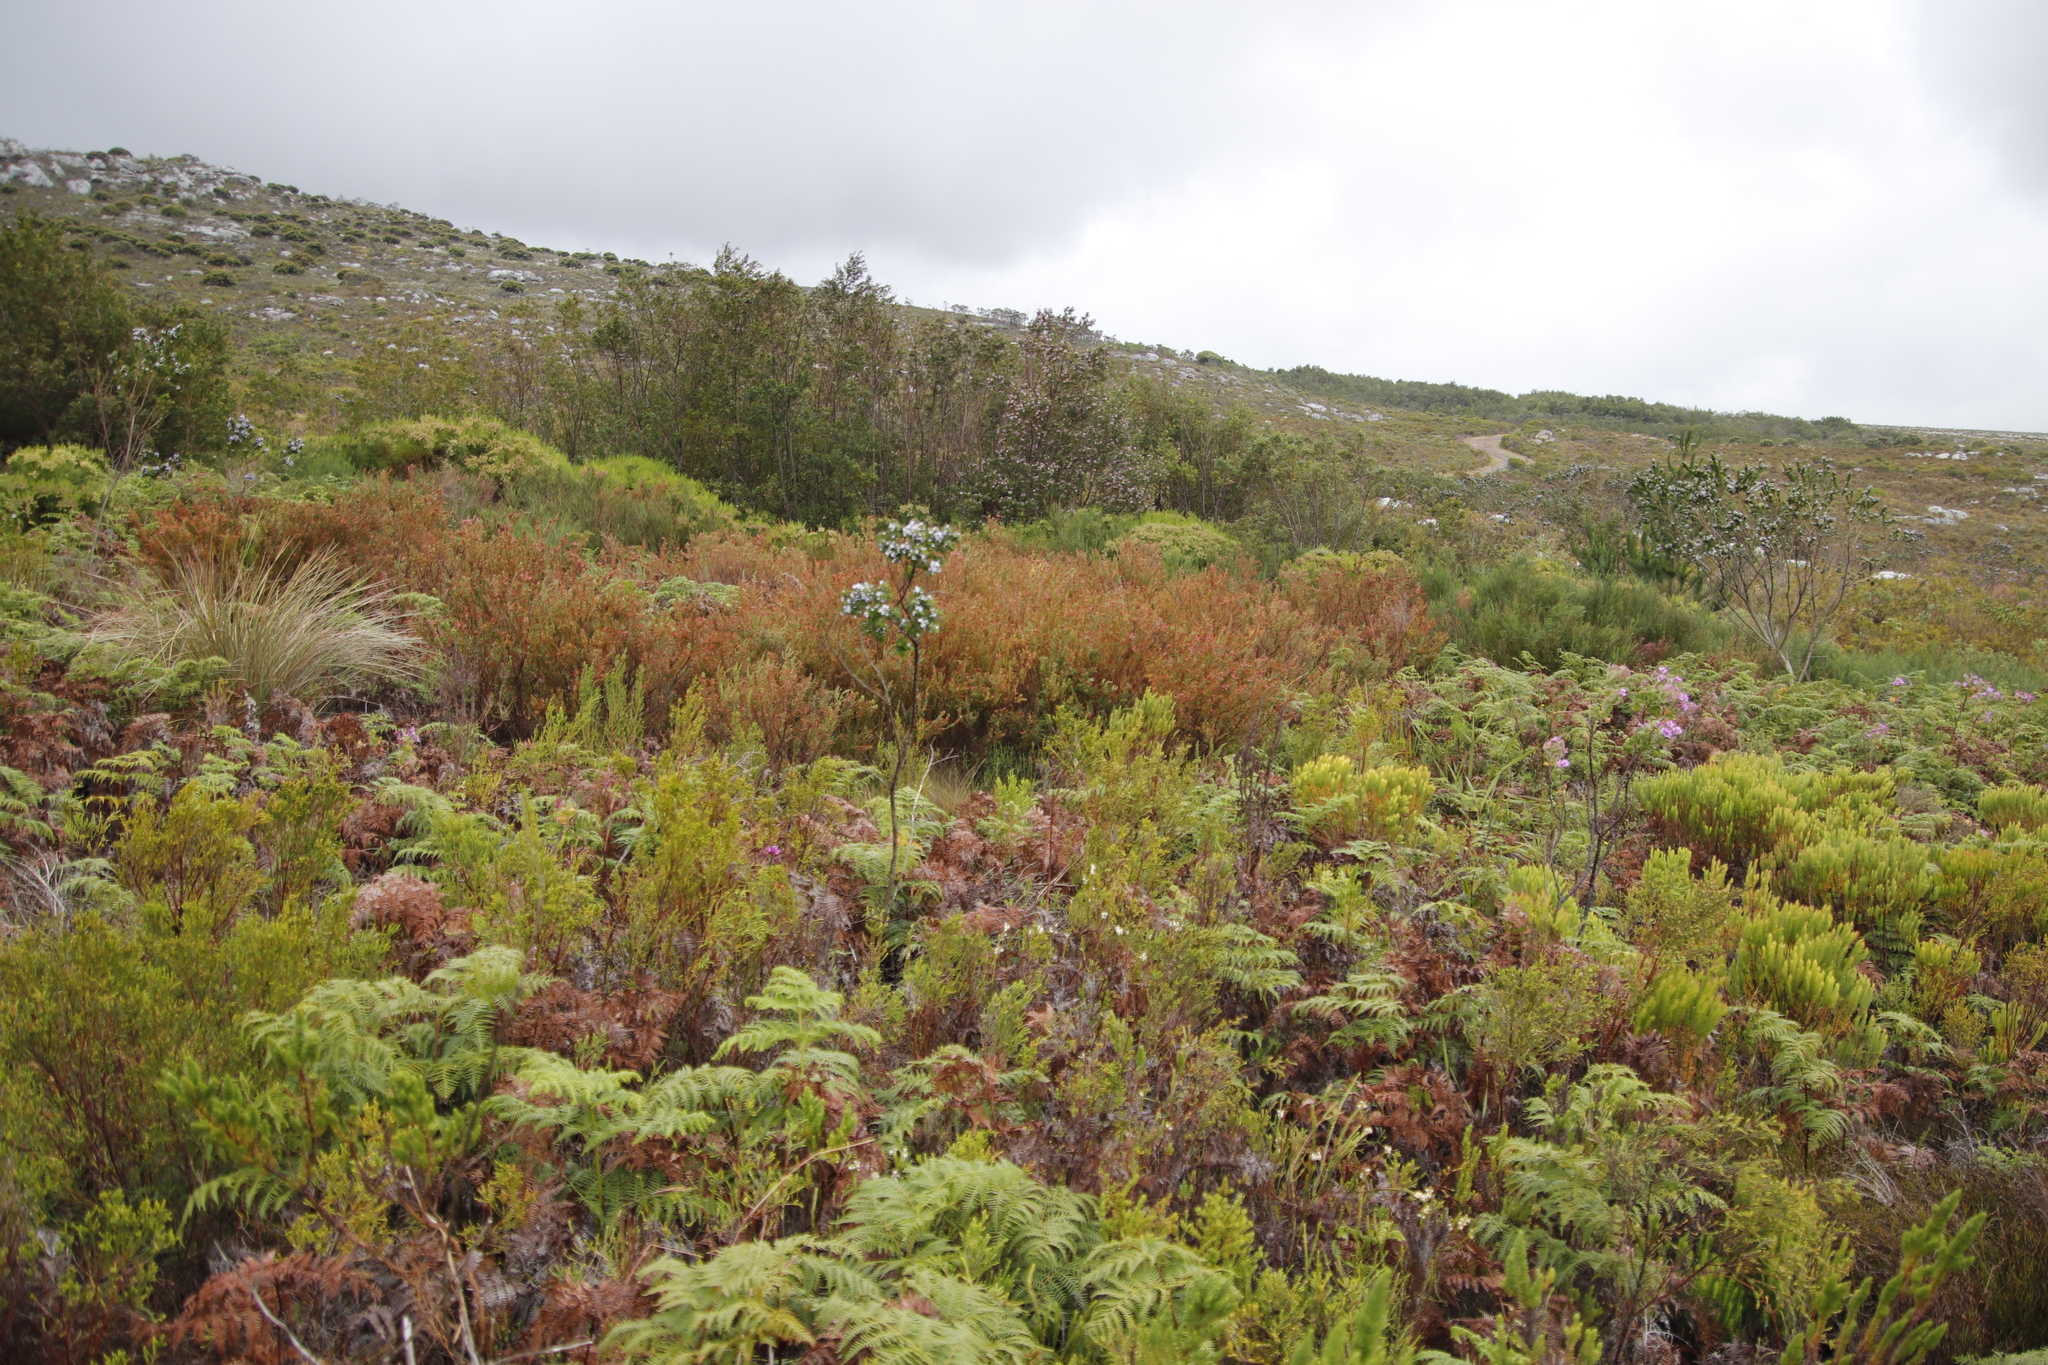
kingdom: Plantae
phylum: Tracheophyta
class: Magnoliopsida
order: Ericales
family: Ericaceae
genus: Erica
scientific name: Erica curviflora
